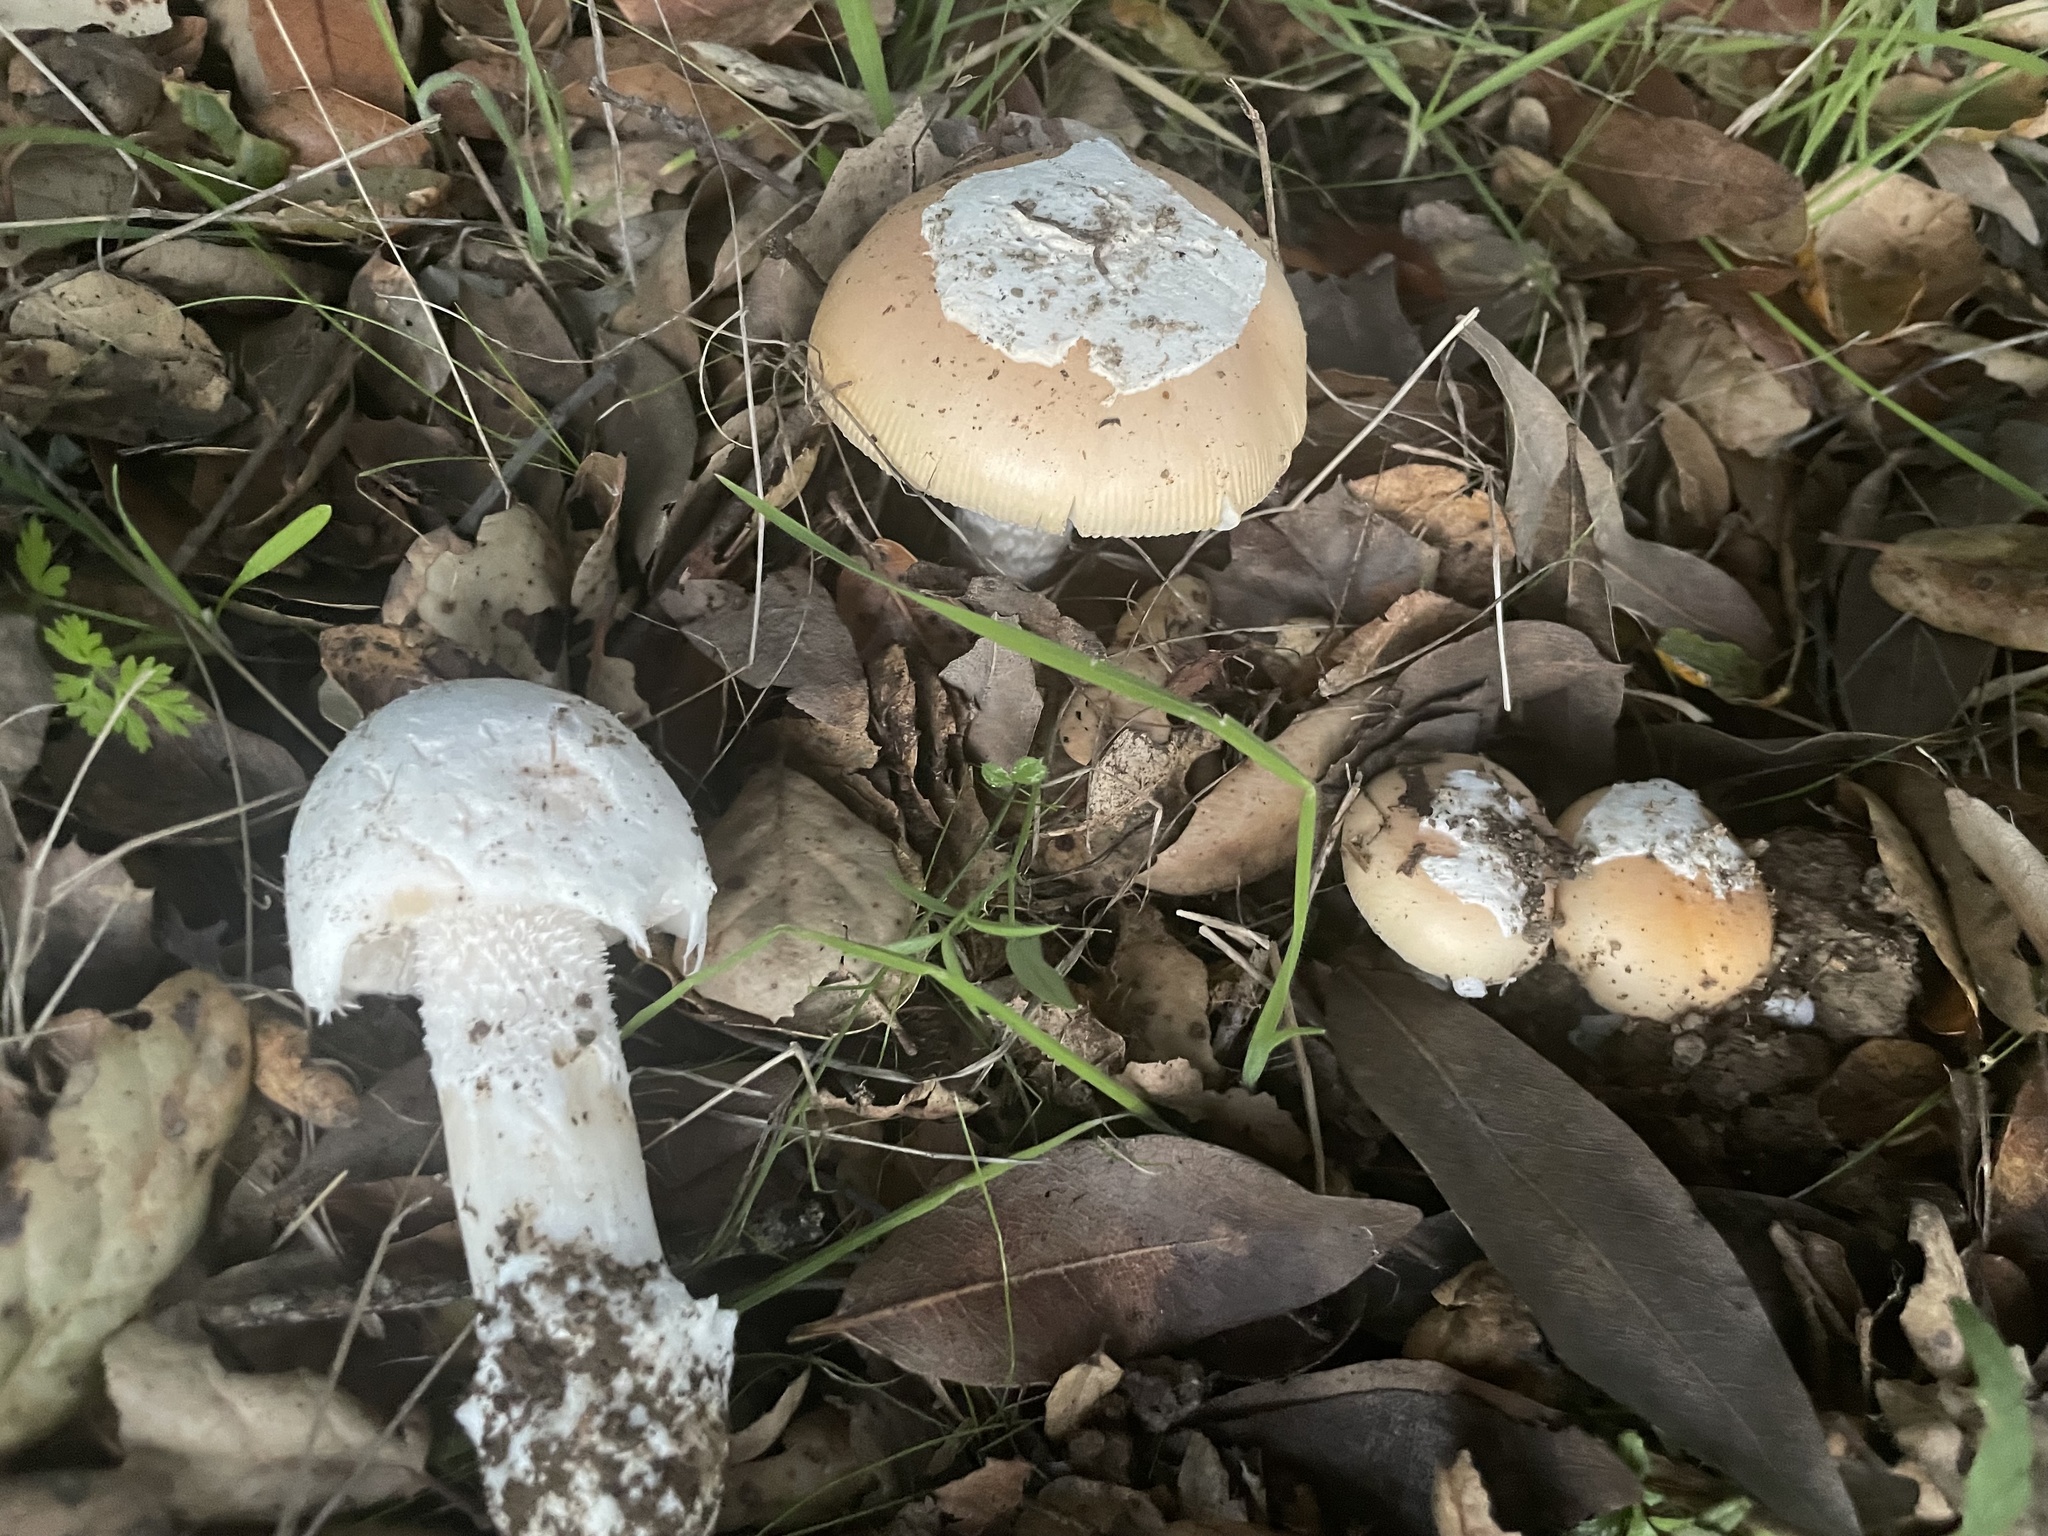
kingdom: Fungi
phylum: Basidiomycota
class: Agaricomycetes
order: Agaricales
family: Amanitaceae
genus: Amanita
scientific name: Amanita velosa
